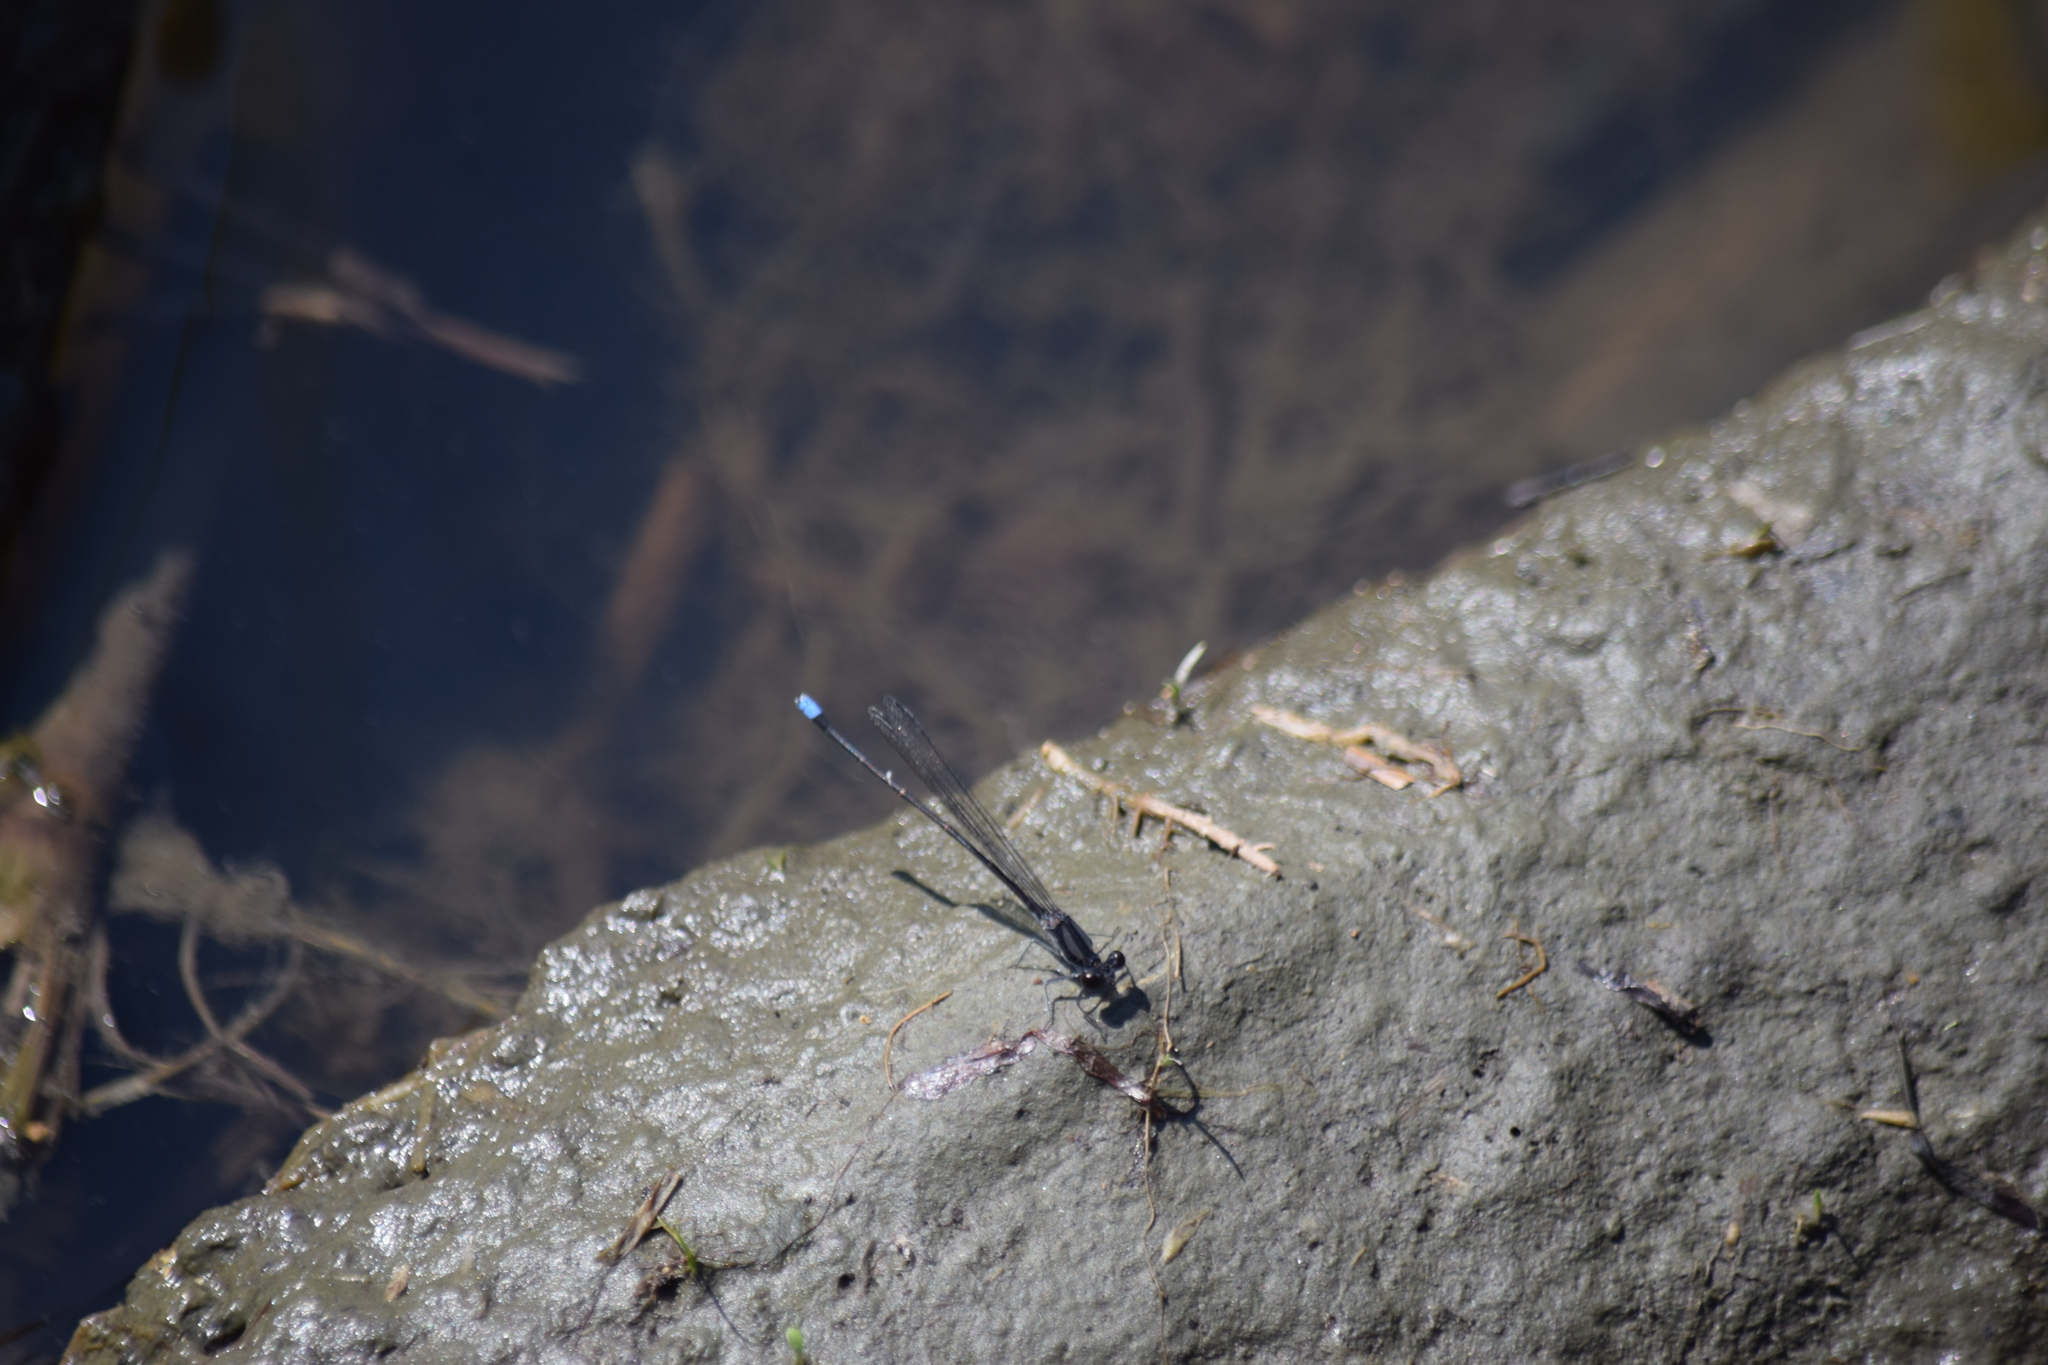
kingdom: Animalia
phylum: Arthropoda
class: Insecta
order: Odonata
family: Coenagrionidae
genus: Argia
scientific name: Argia tibialis
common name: Blue-tipped dancer
